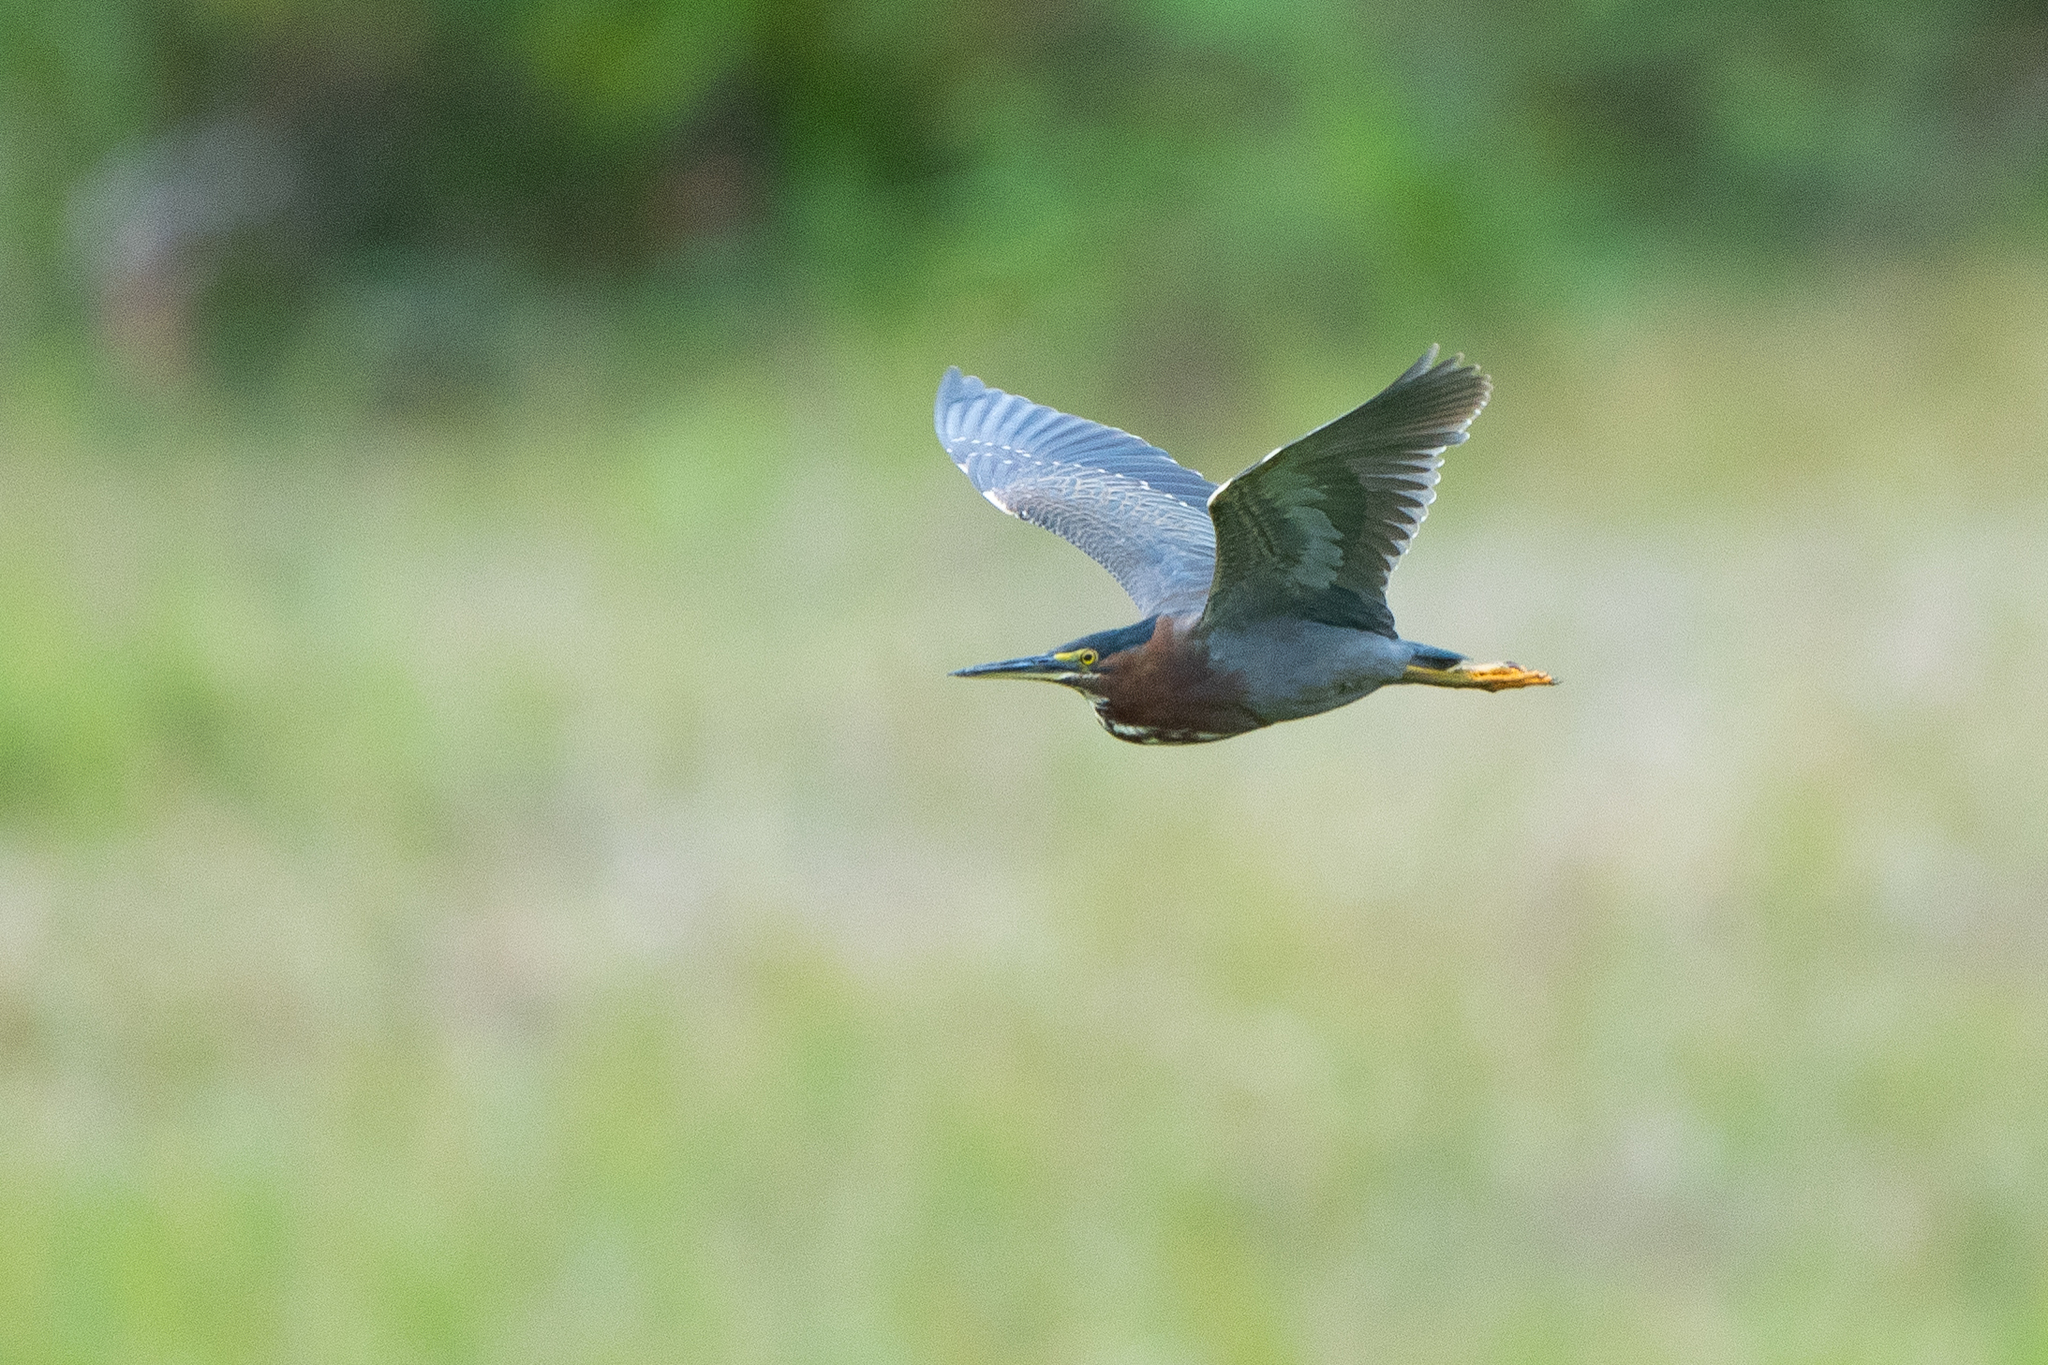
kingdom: Animalia
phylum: Chordata
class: Aves
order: Pelecaniformes
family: Ardeidae
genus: Butorides
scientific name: Butorides virescens
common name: Green heron
